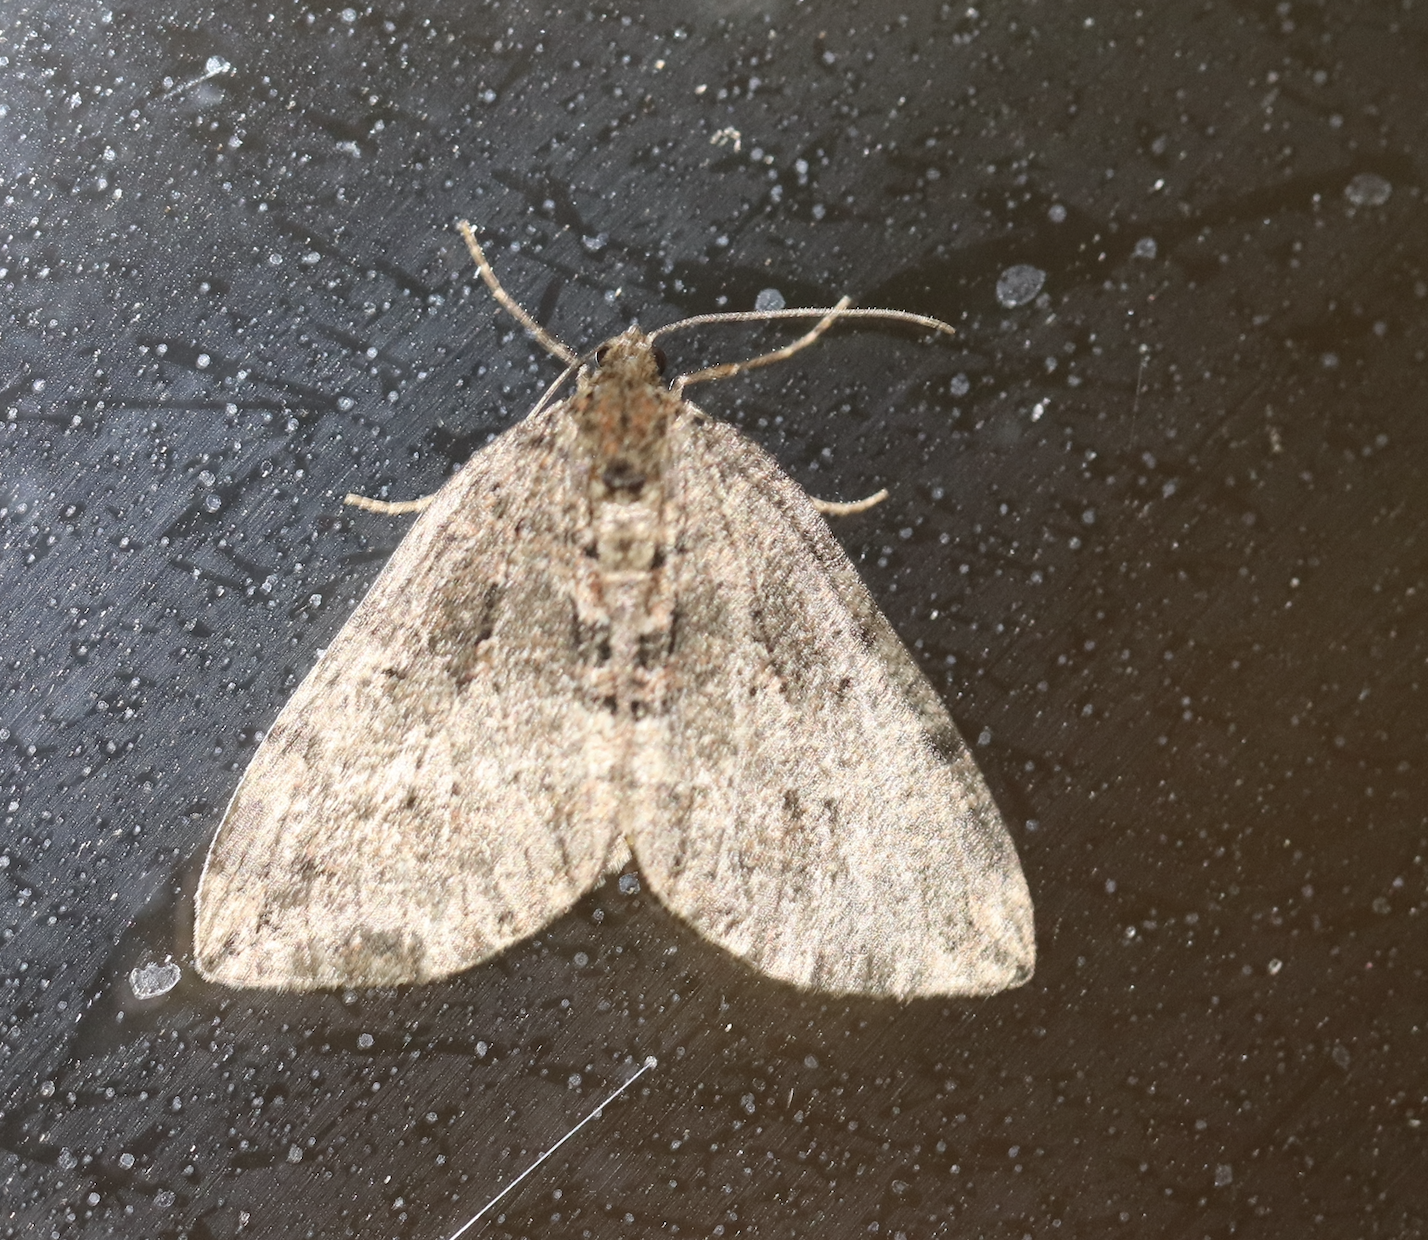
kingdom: Animalia
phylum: Arthropoda
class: Insecta
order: Lepidoptera
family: Geometridae
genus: Hydriomena
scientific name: Hydriomena furcata
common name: July highflyer
